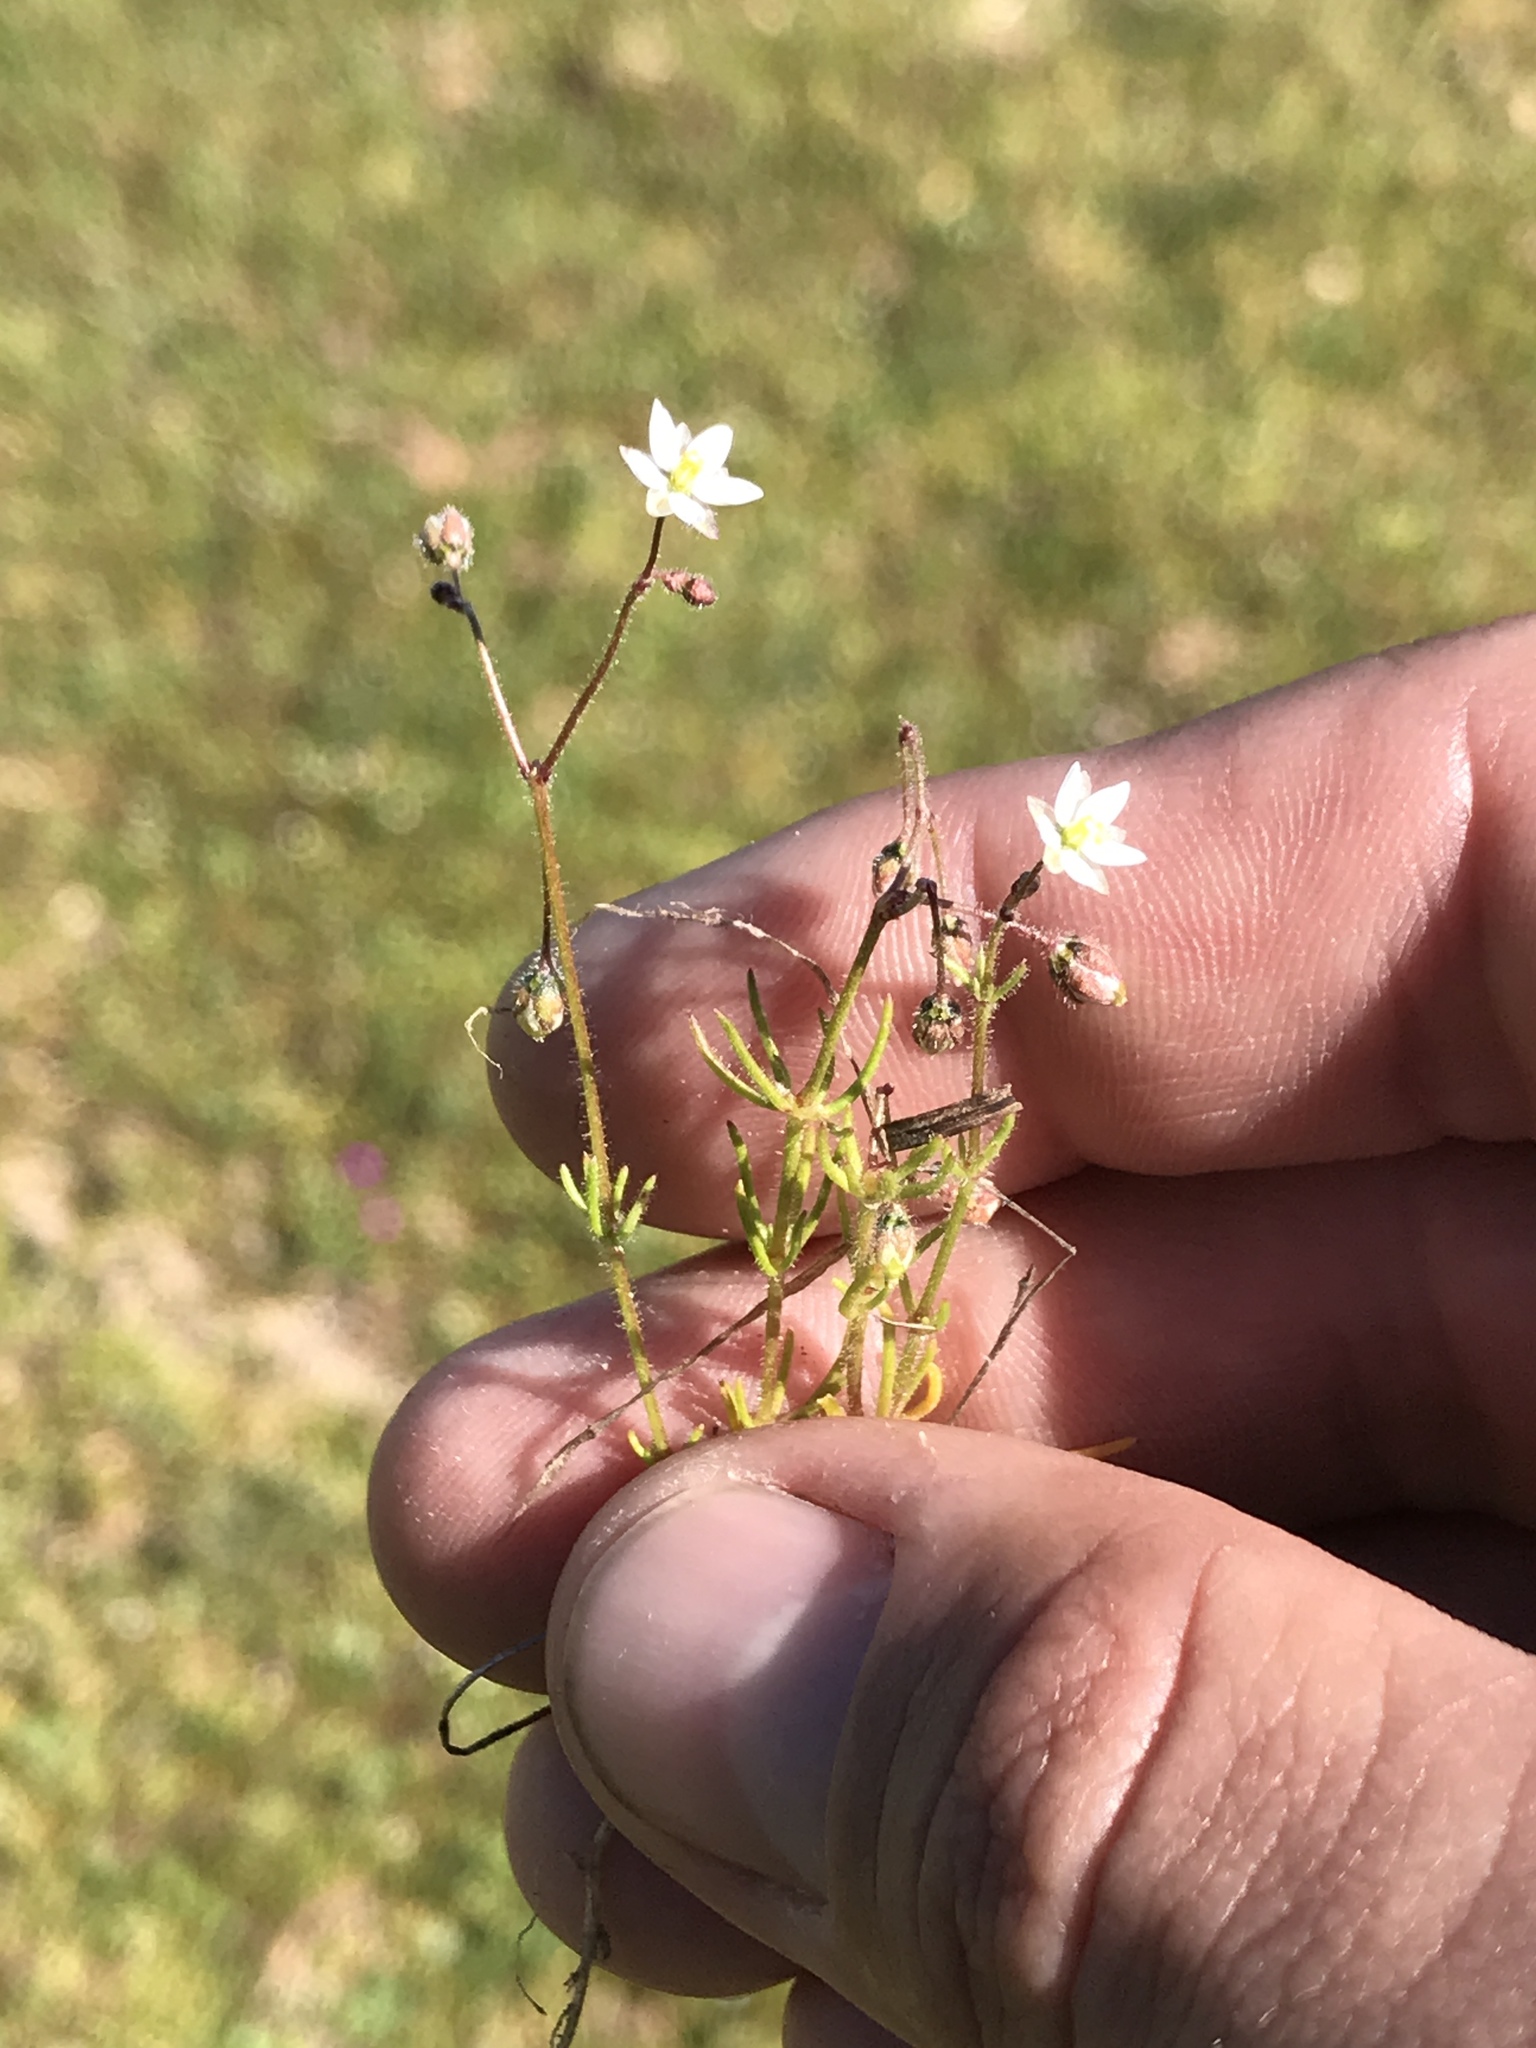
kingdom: Plantae
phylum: Tracheophyta
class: Magnoliopsida
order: Caryophyllales
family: Caryophyllaceae
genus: Spergula
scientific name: Spergula arvensis
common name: Corn spurrey
